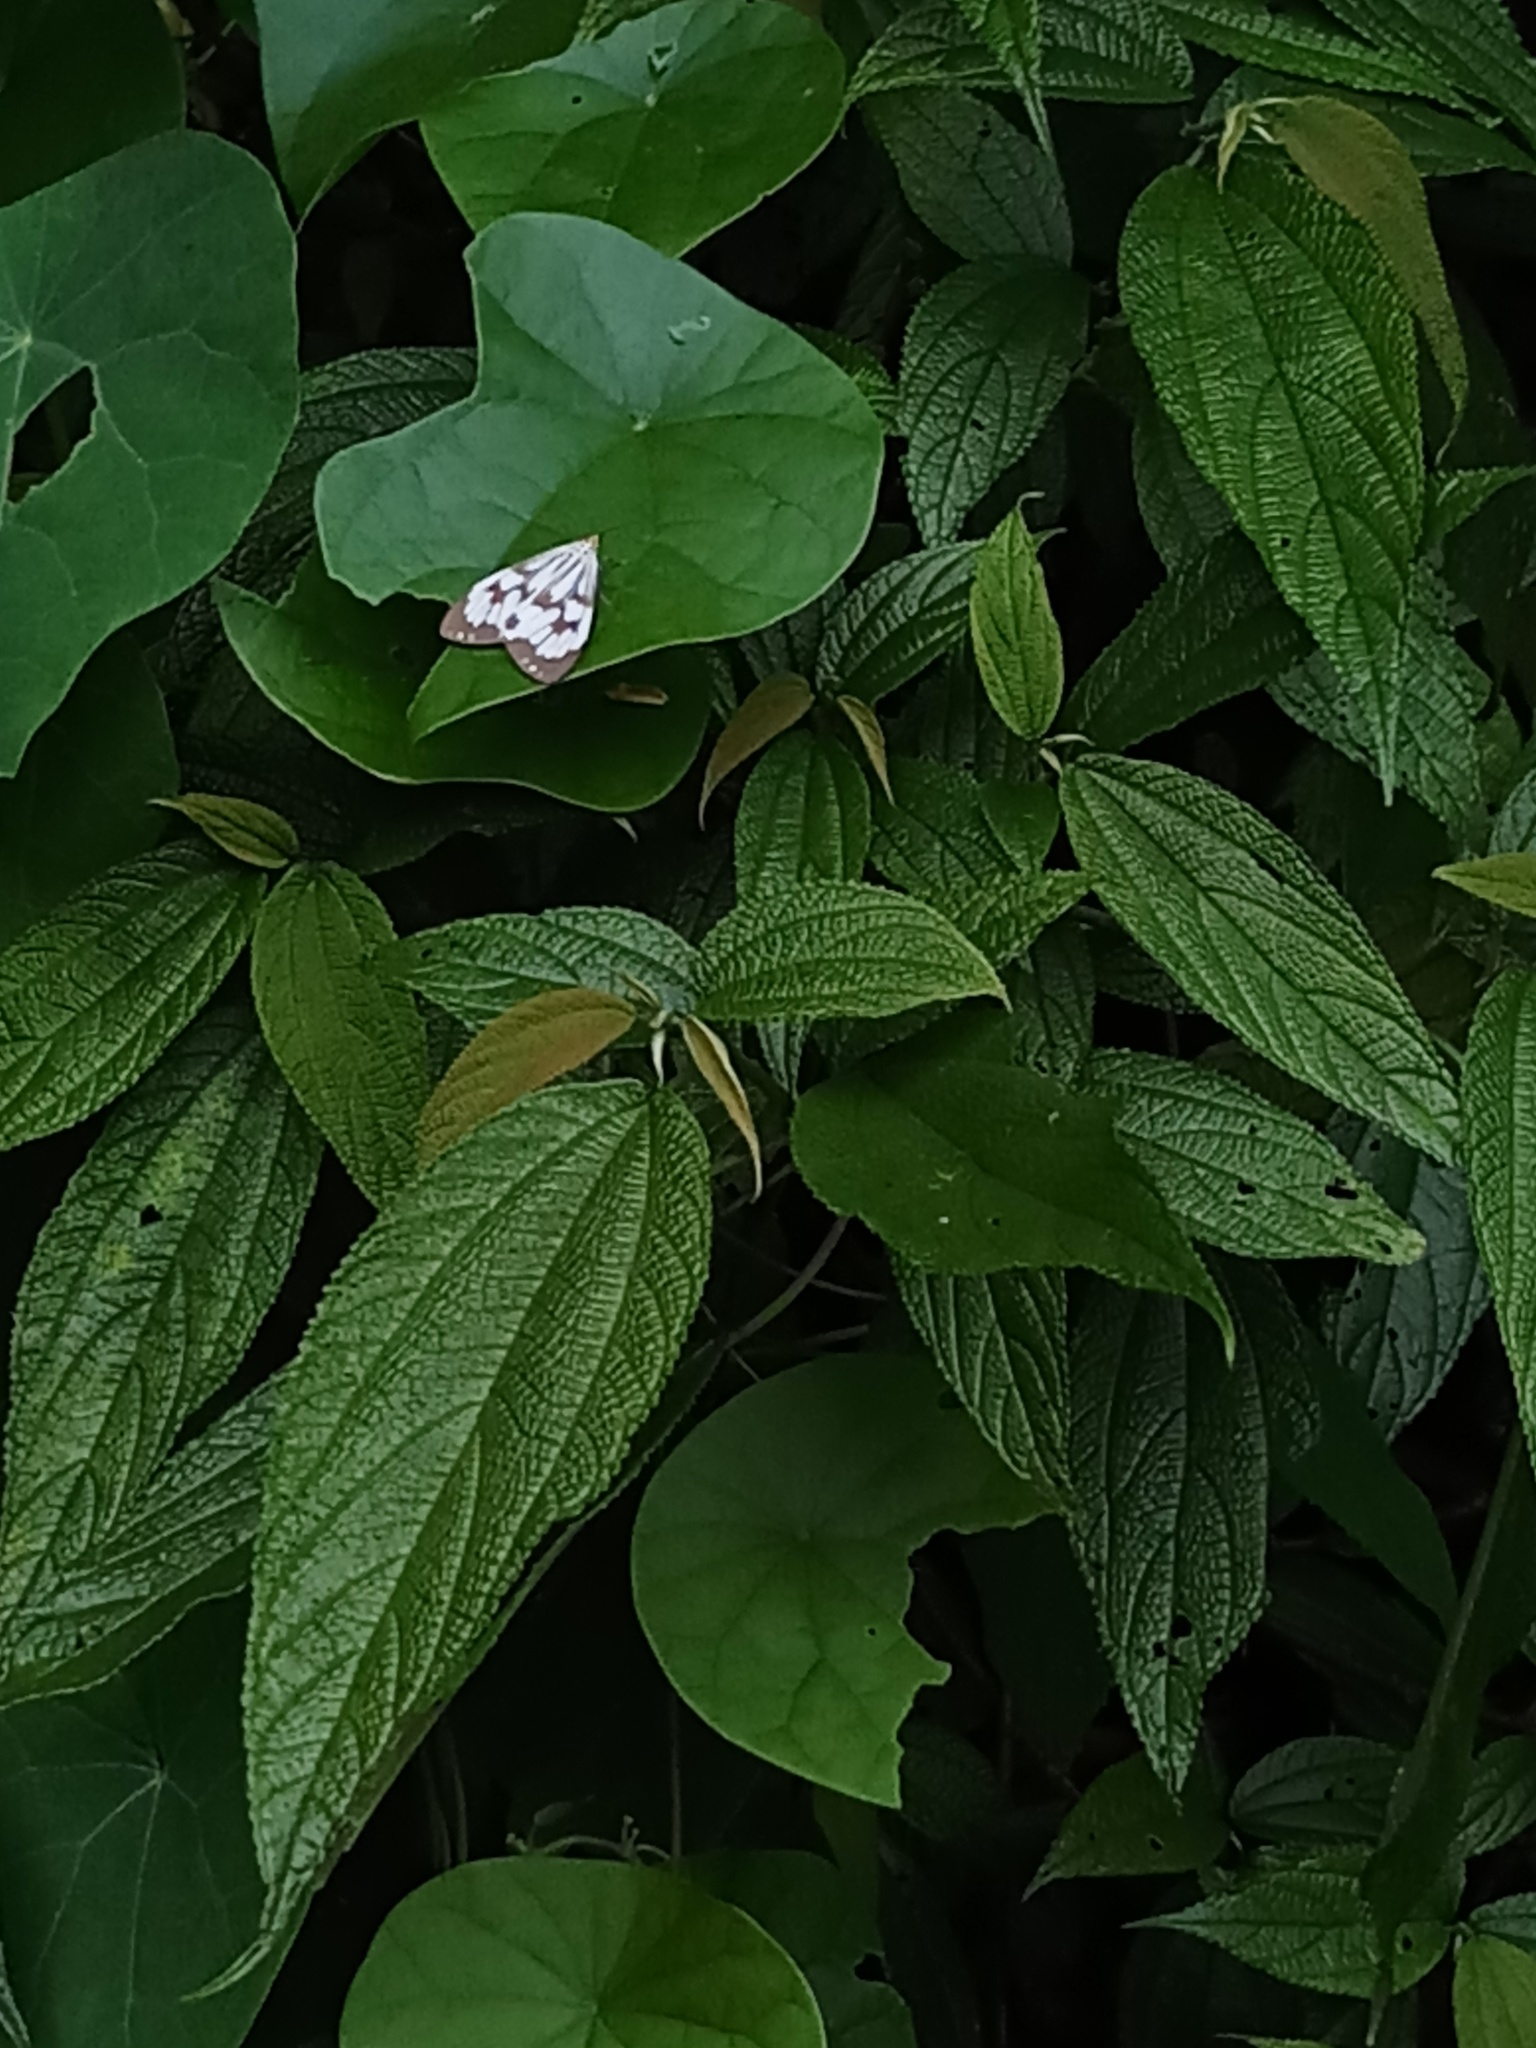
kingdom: Animalia
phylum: Arthropoda
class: Insecta
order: Lepidoptera
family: Erebidae
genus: Nyctemera
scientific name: Nyctemera adversata
